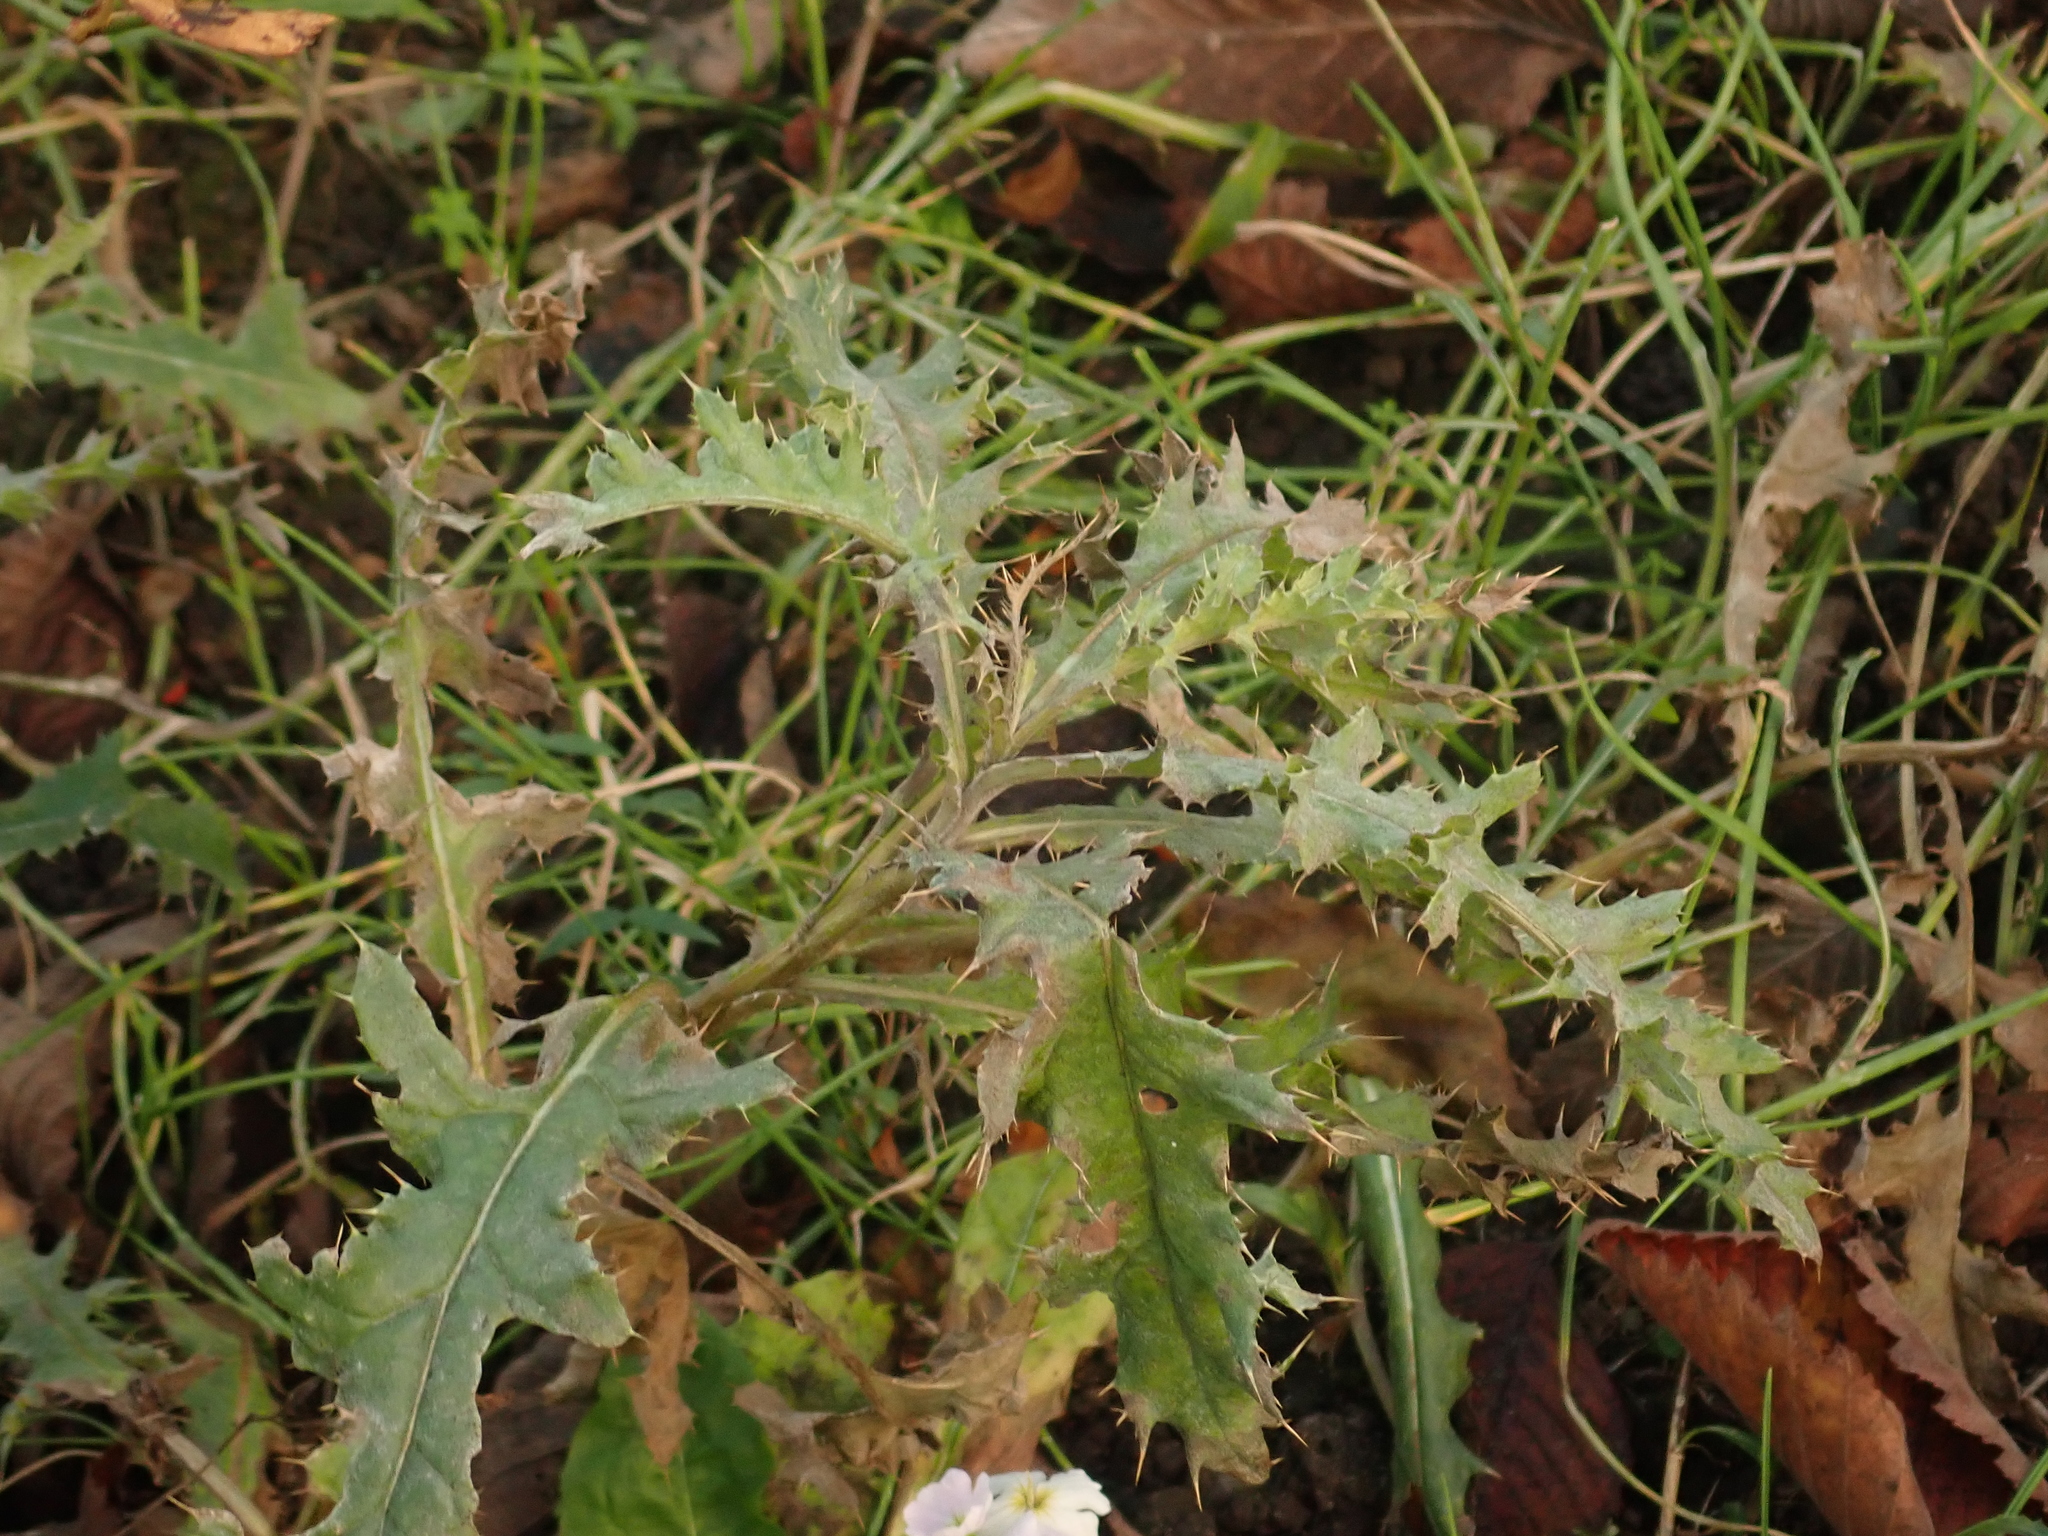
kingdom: Plantae
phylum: Tracheophyta
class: Magnoliopsida
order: Asterales
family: Asteraceae
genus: Cirsium
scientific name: Cirsium arvense
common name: Creeping thistle
